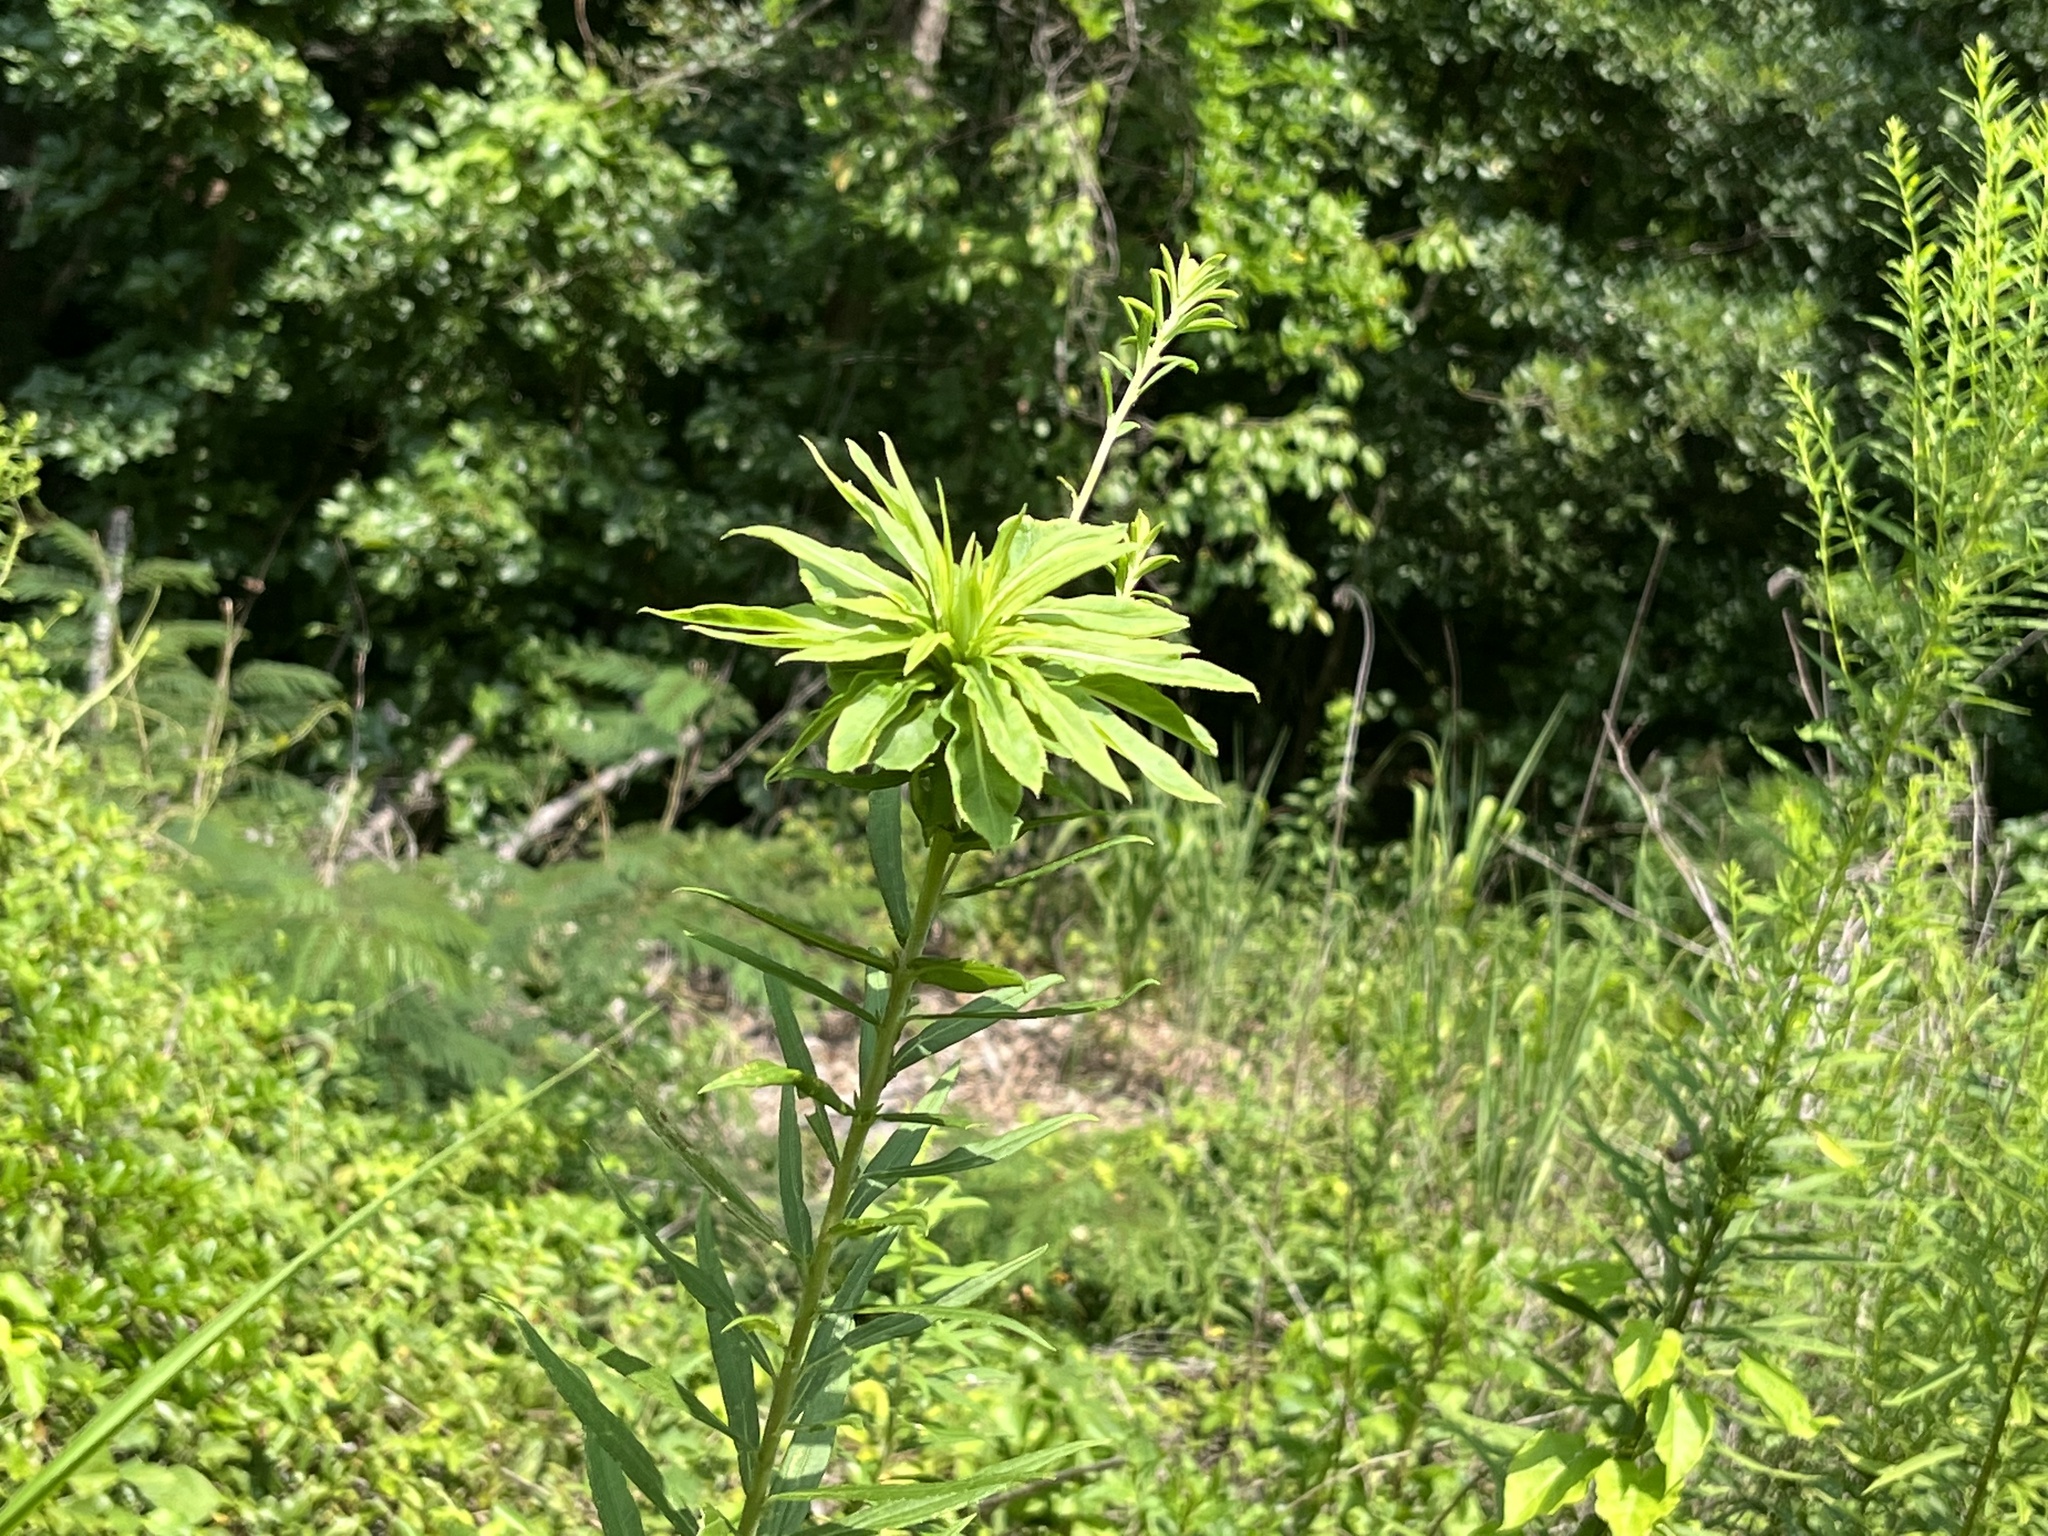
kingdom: Animalia
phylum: Arthropoda
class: Insecta
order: Diptera
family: Cecidomyiidae
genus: Rhopalomyia
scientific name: Rhopalomyia solidaginis
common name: Goldenrod bunch gall midge
